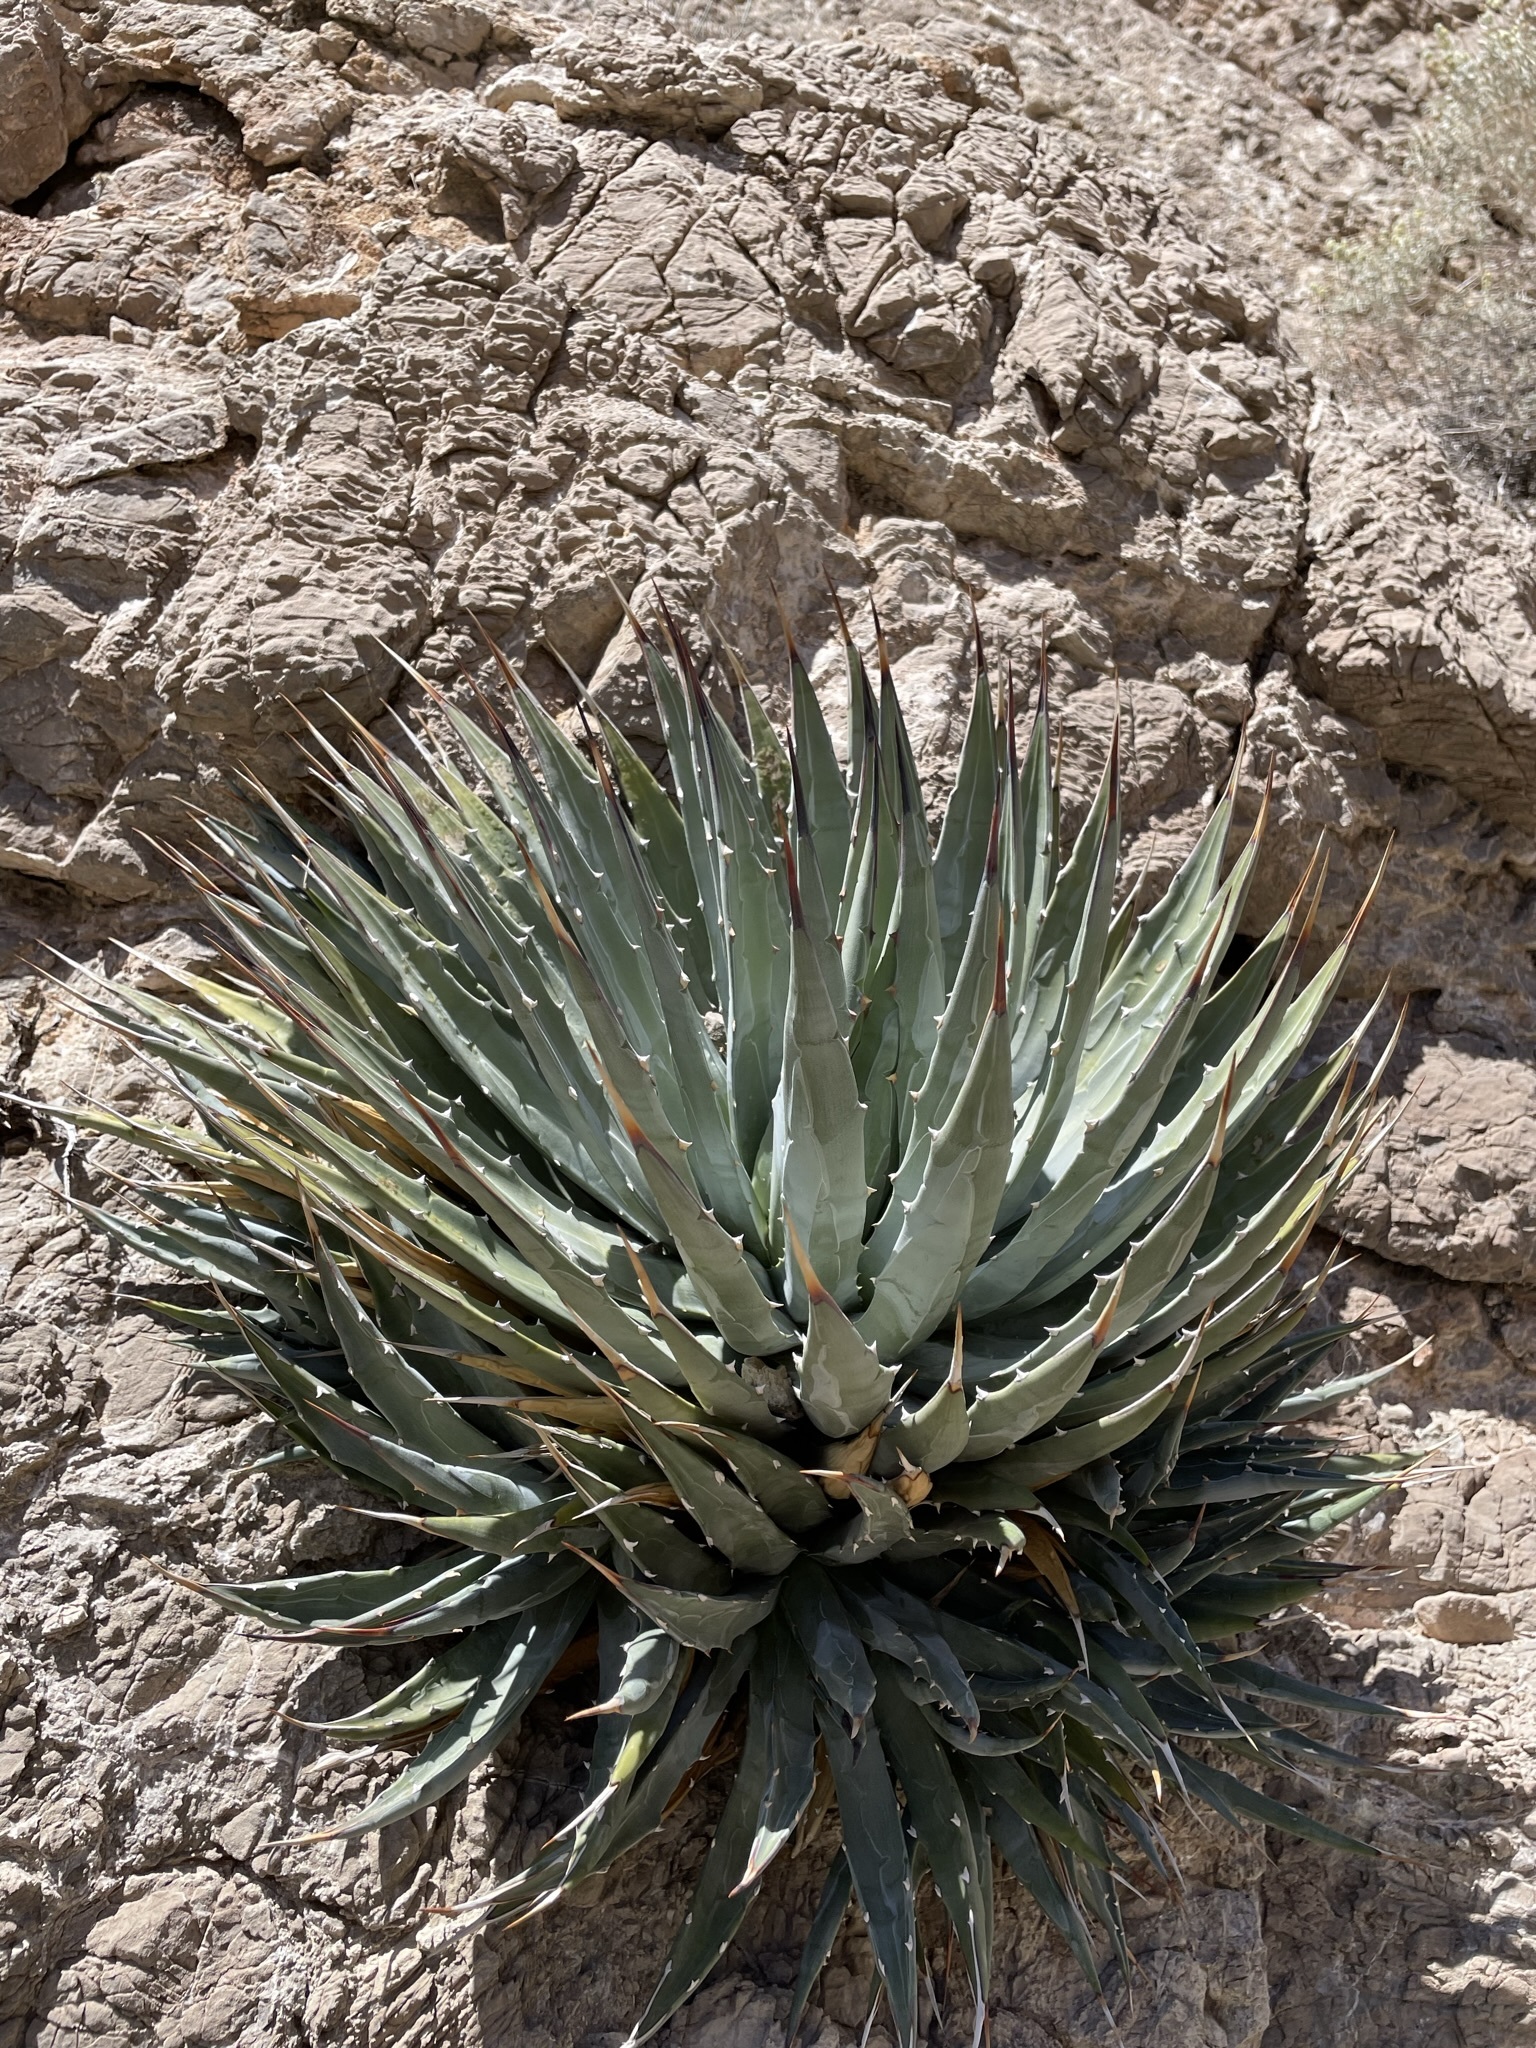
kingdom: Plantae
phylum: Tracheophyta
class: Liliopsida
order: Asparagales
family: Asparagaceae
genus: Agave
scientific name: Agave utahensis
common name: Utah agave
